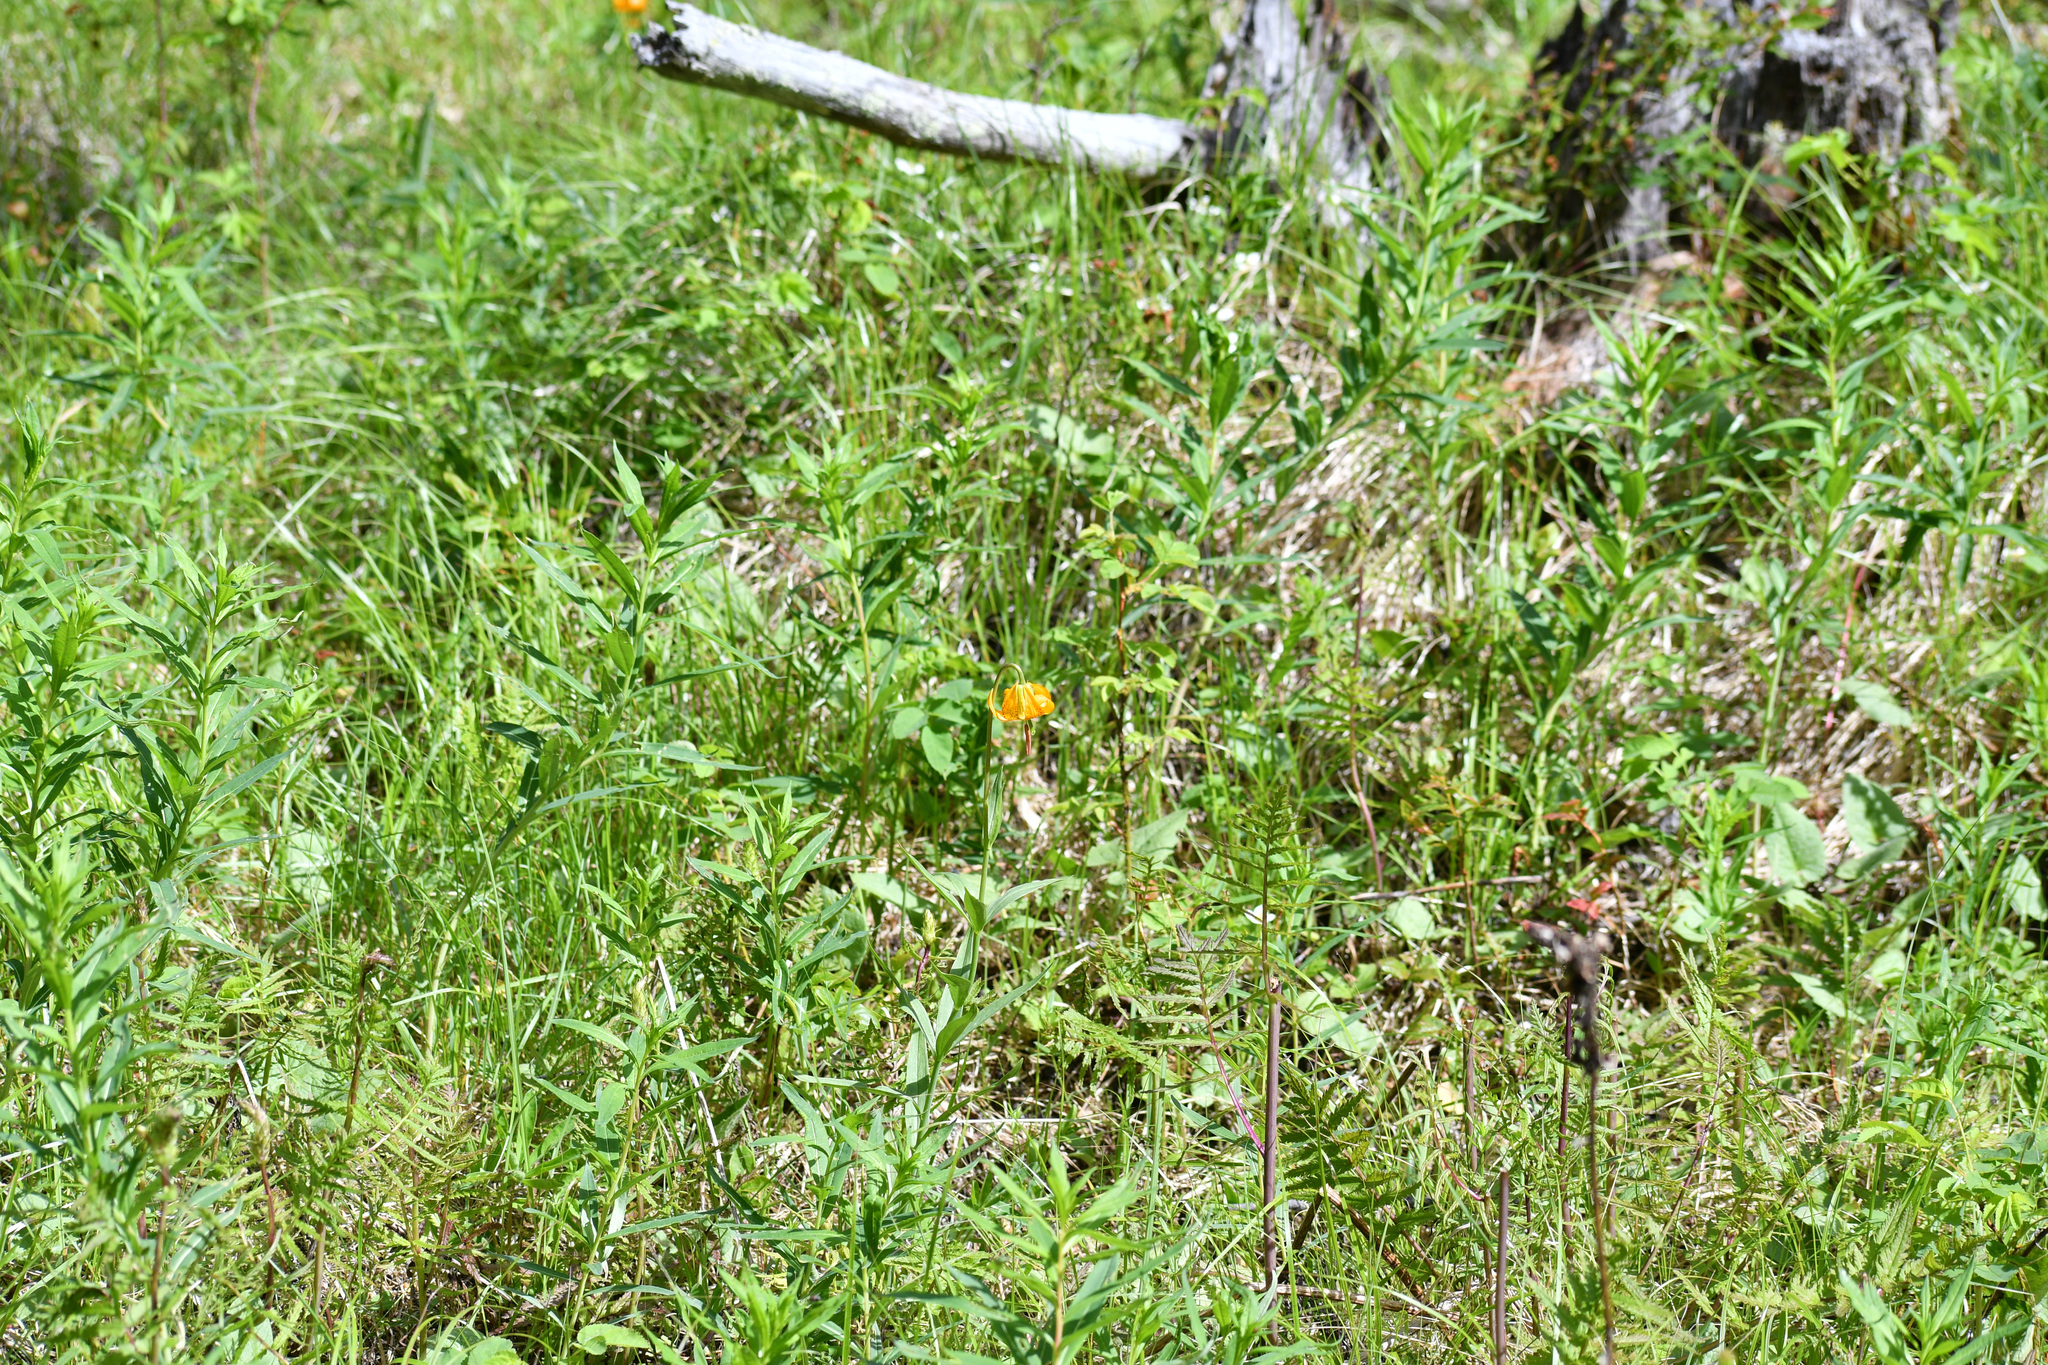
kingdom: Plantae
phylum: Tracheophyta
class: Liliopsida
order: Liliales
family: Liliaceae
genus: Lilium
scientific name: Lilium columbianum
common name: Columbia lily
